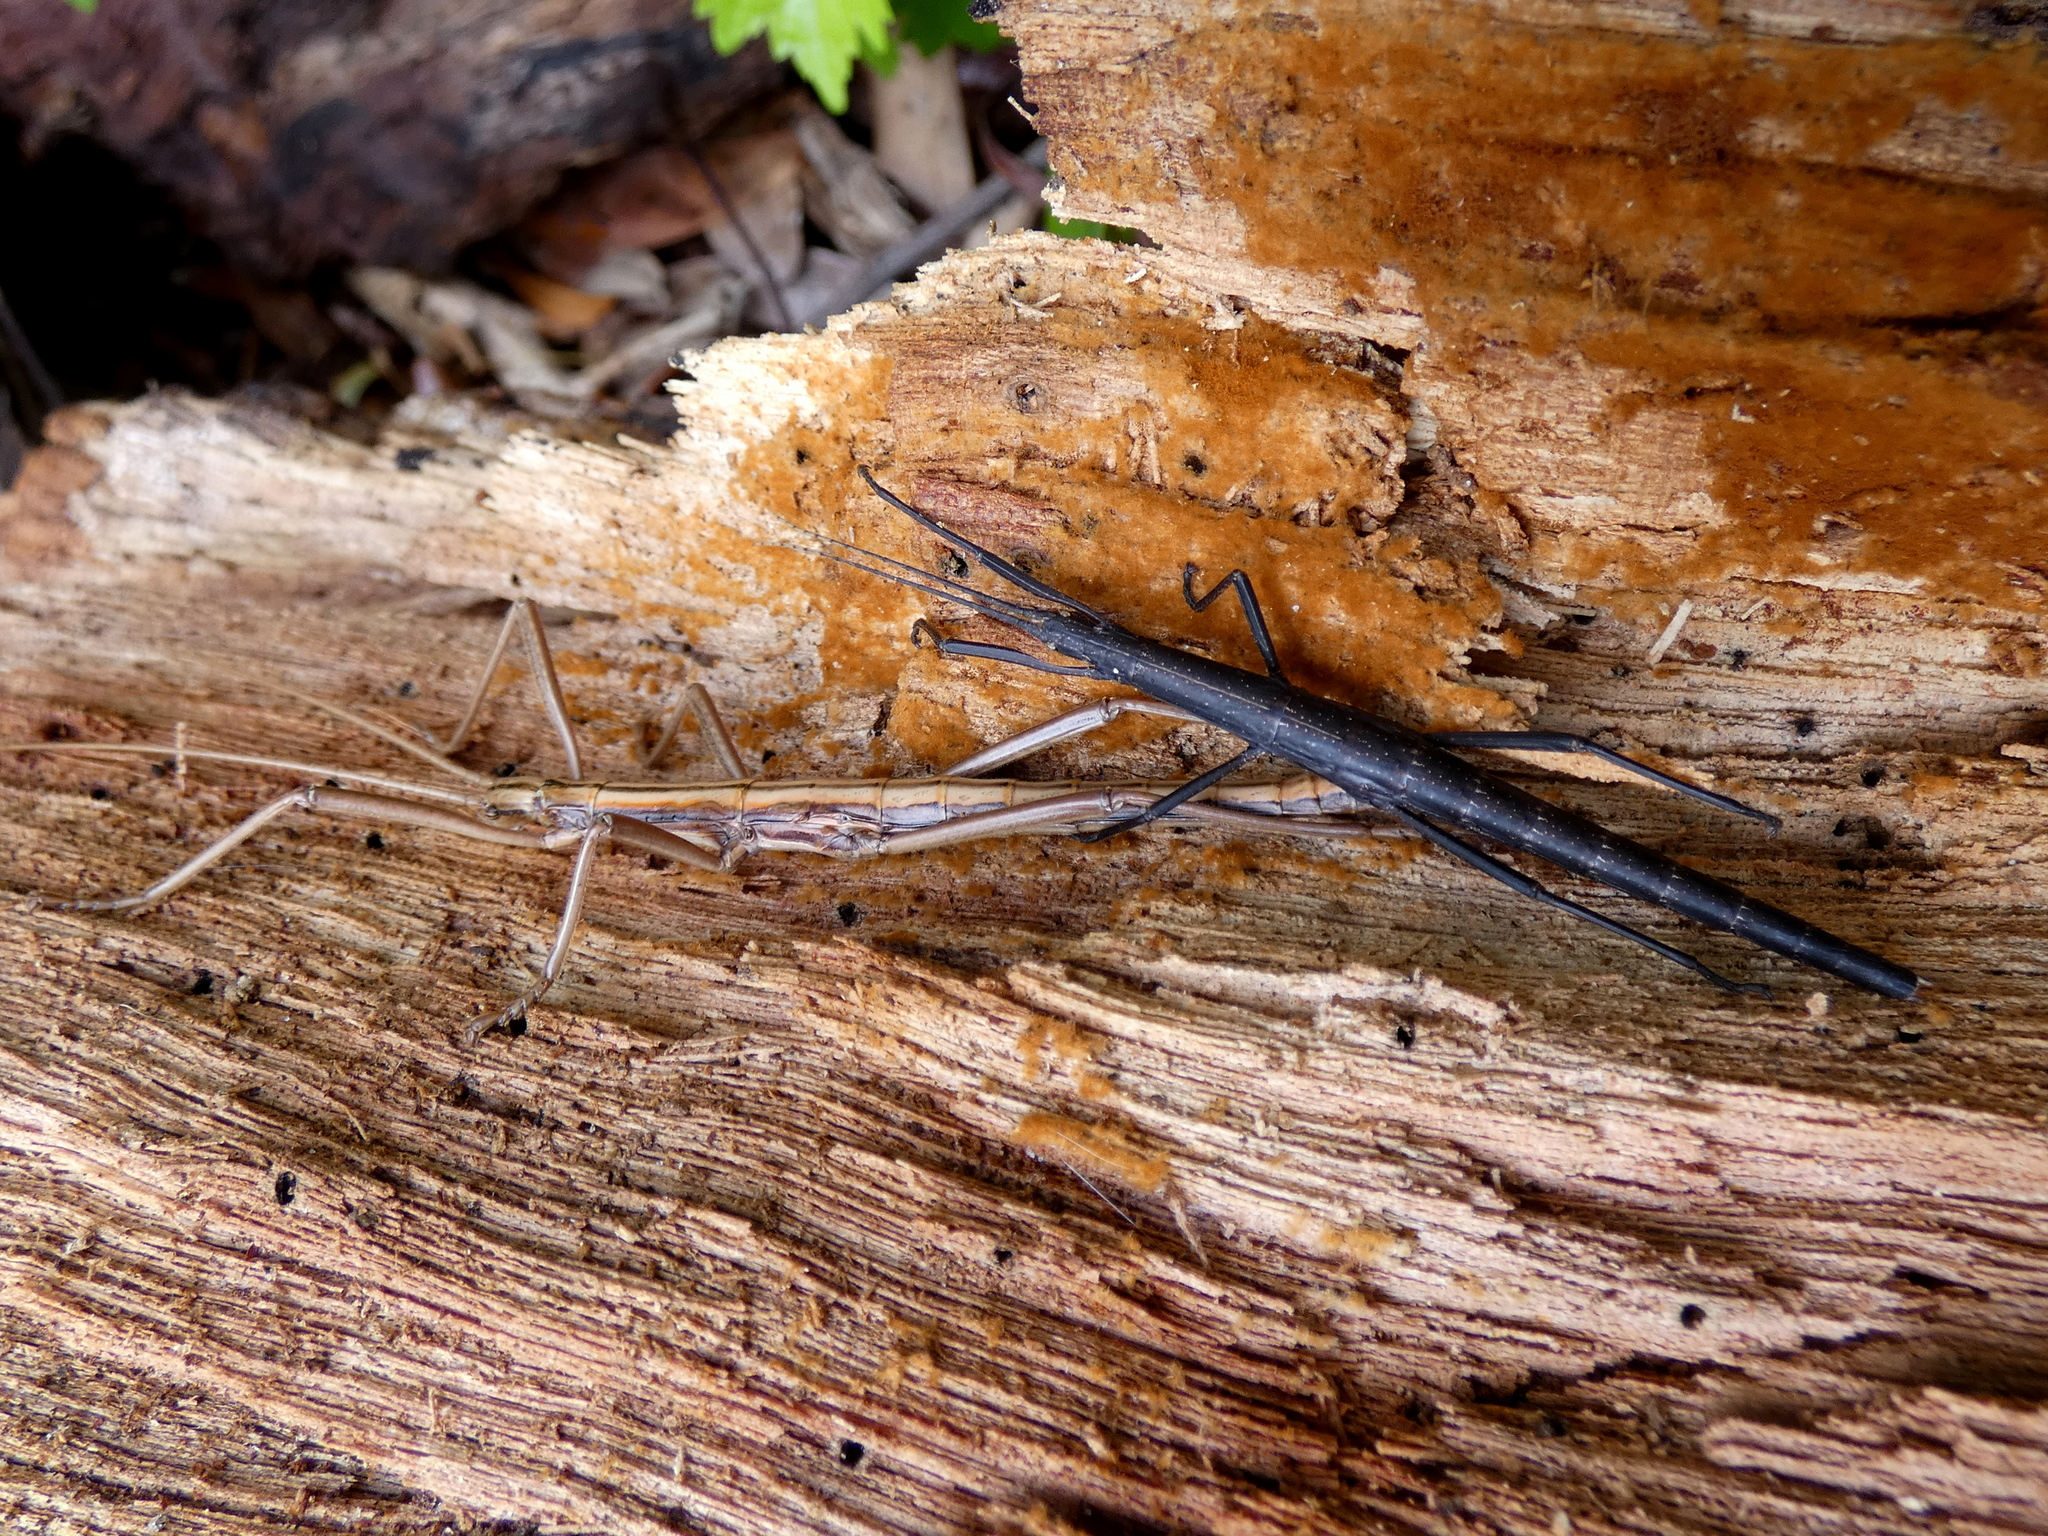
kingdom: Animalia
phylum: Arthropoda
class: Insecta
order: Phasmida
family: Pseudophasmatidae
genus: Anisomorpha
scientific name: Anisomorpha buprestoides
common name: Florida stick insect
